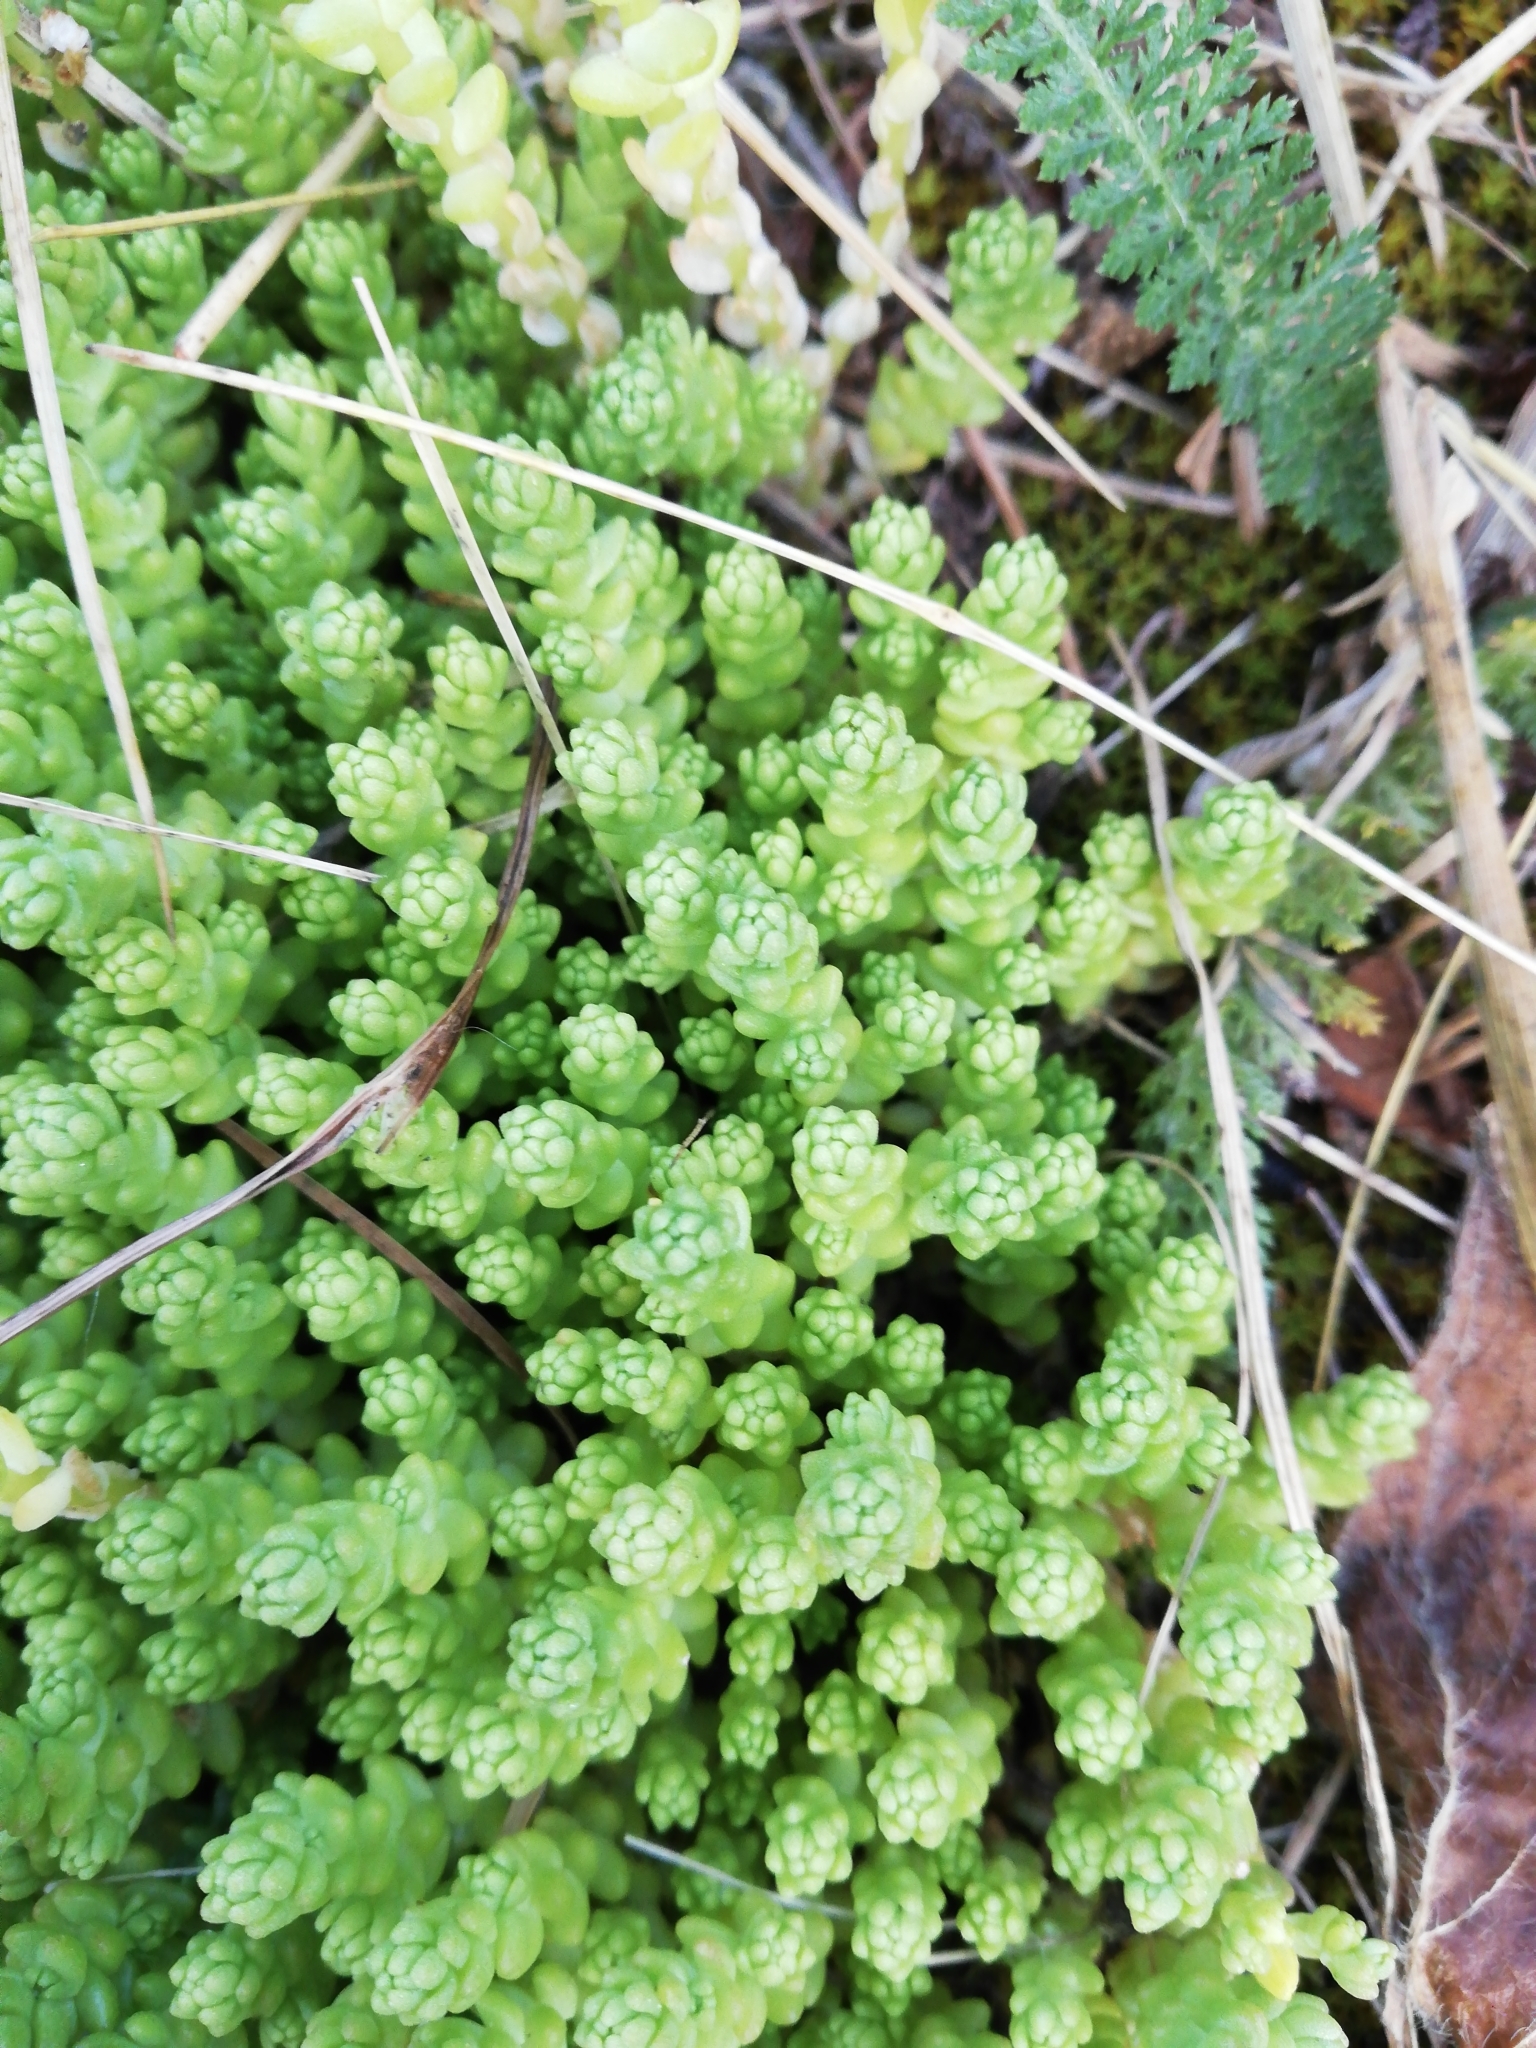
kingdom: Plantae
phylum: Tracheophyta
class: Magnoliopsida
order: Saxifragales
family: Crassulaceae
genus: Sedum
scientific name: Sedum acre
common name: Biting stonecrop
